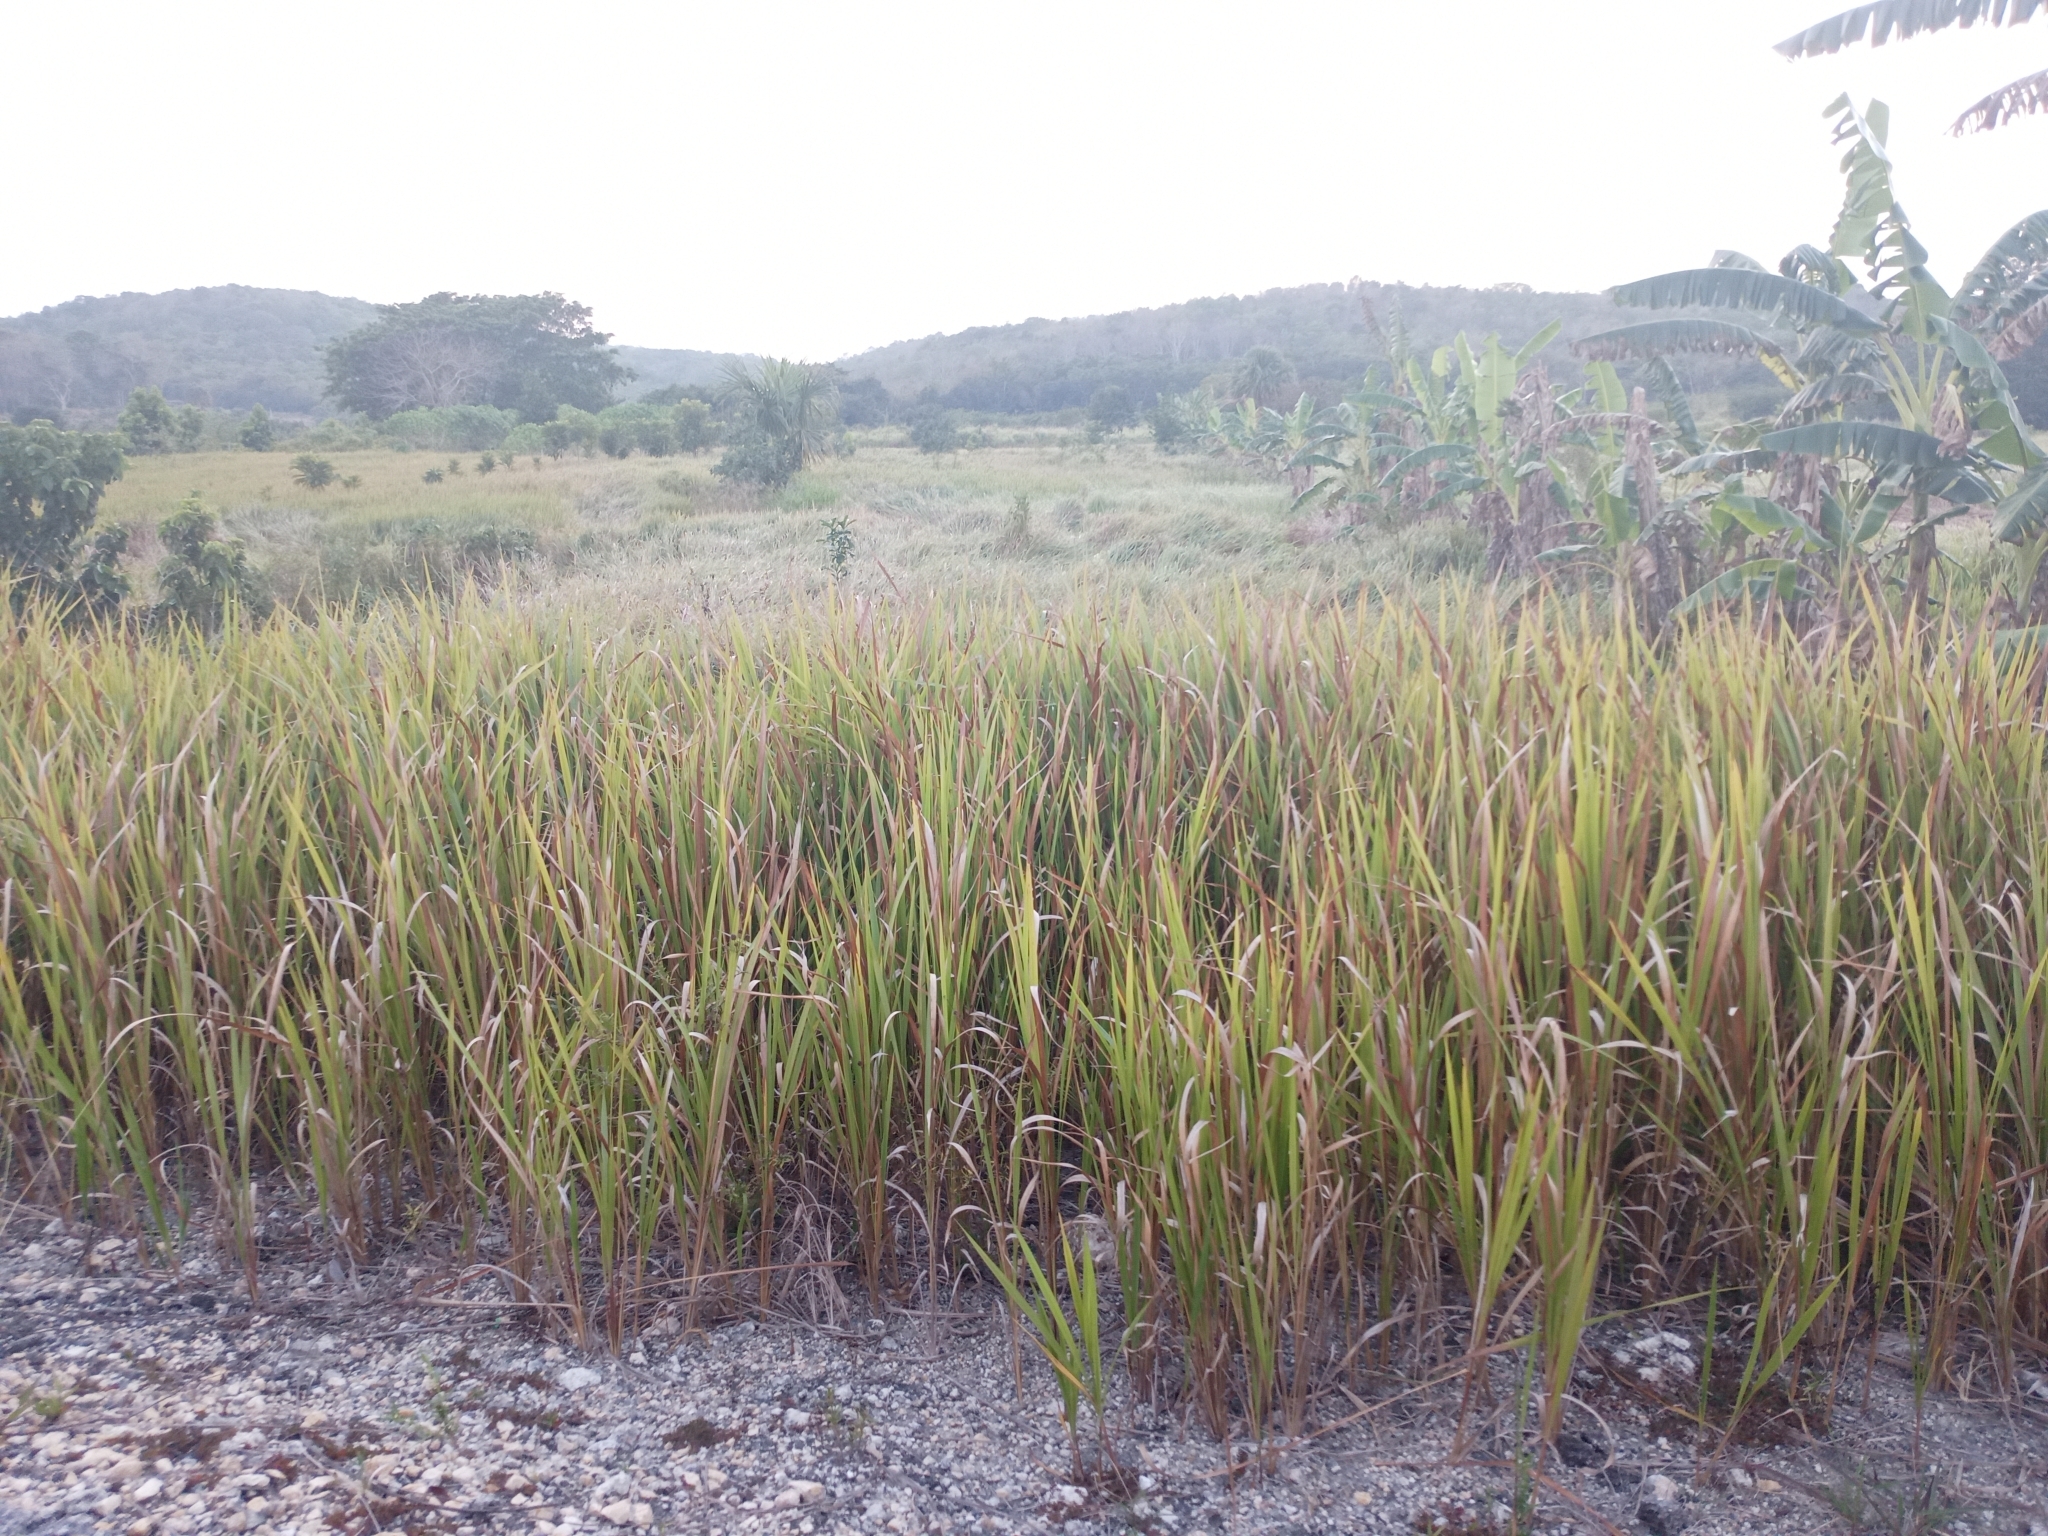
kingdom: Plantae
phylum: Tracheophyta
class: Liliopsida
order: Poales
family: Poaceae
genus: Imperata
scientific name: Imperata cylindrica
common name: Cogongrass
